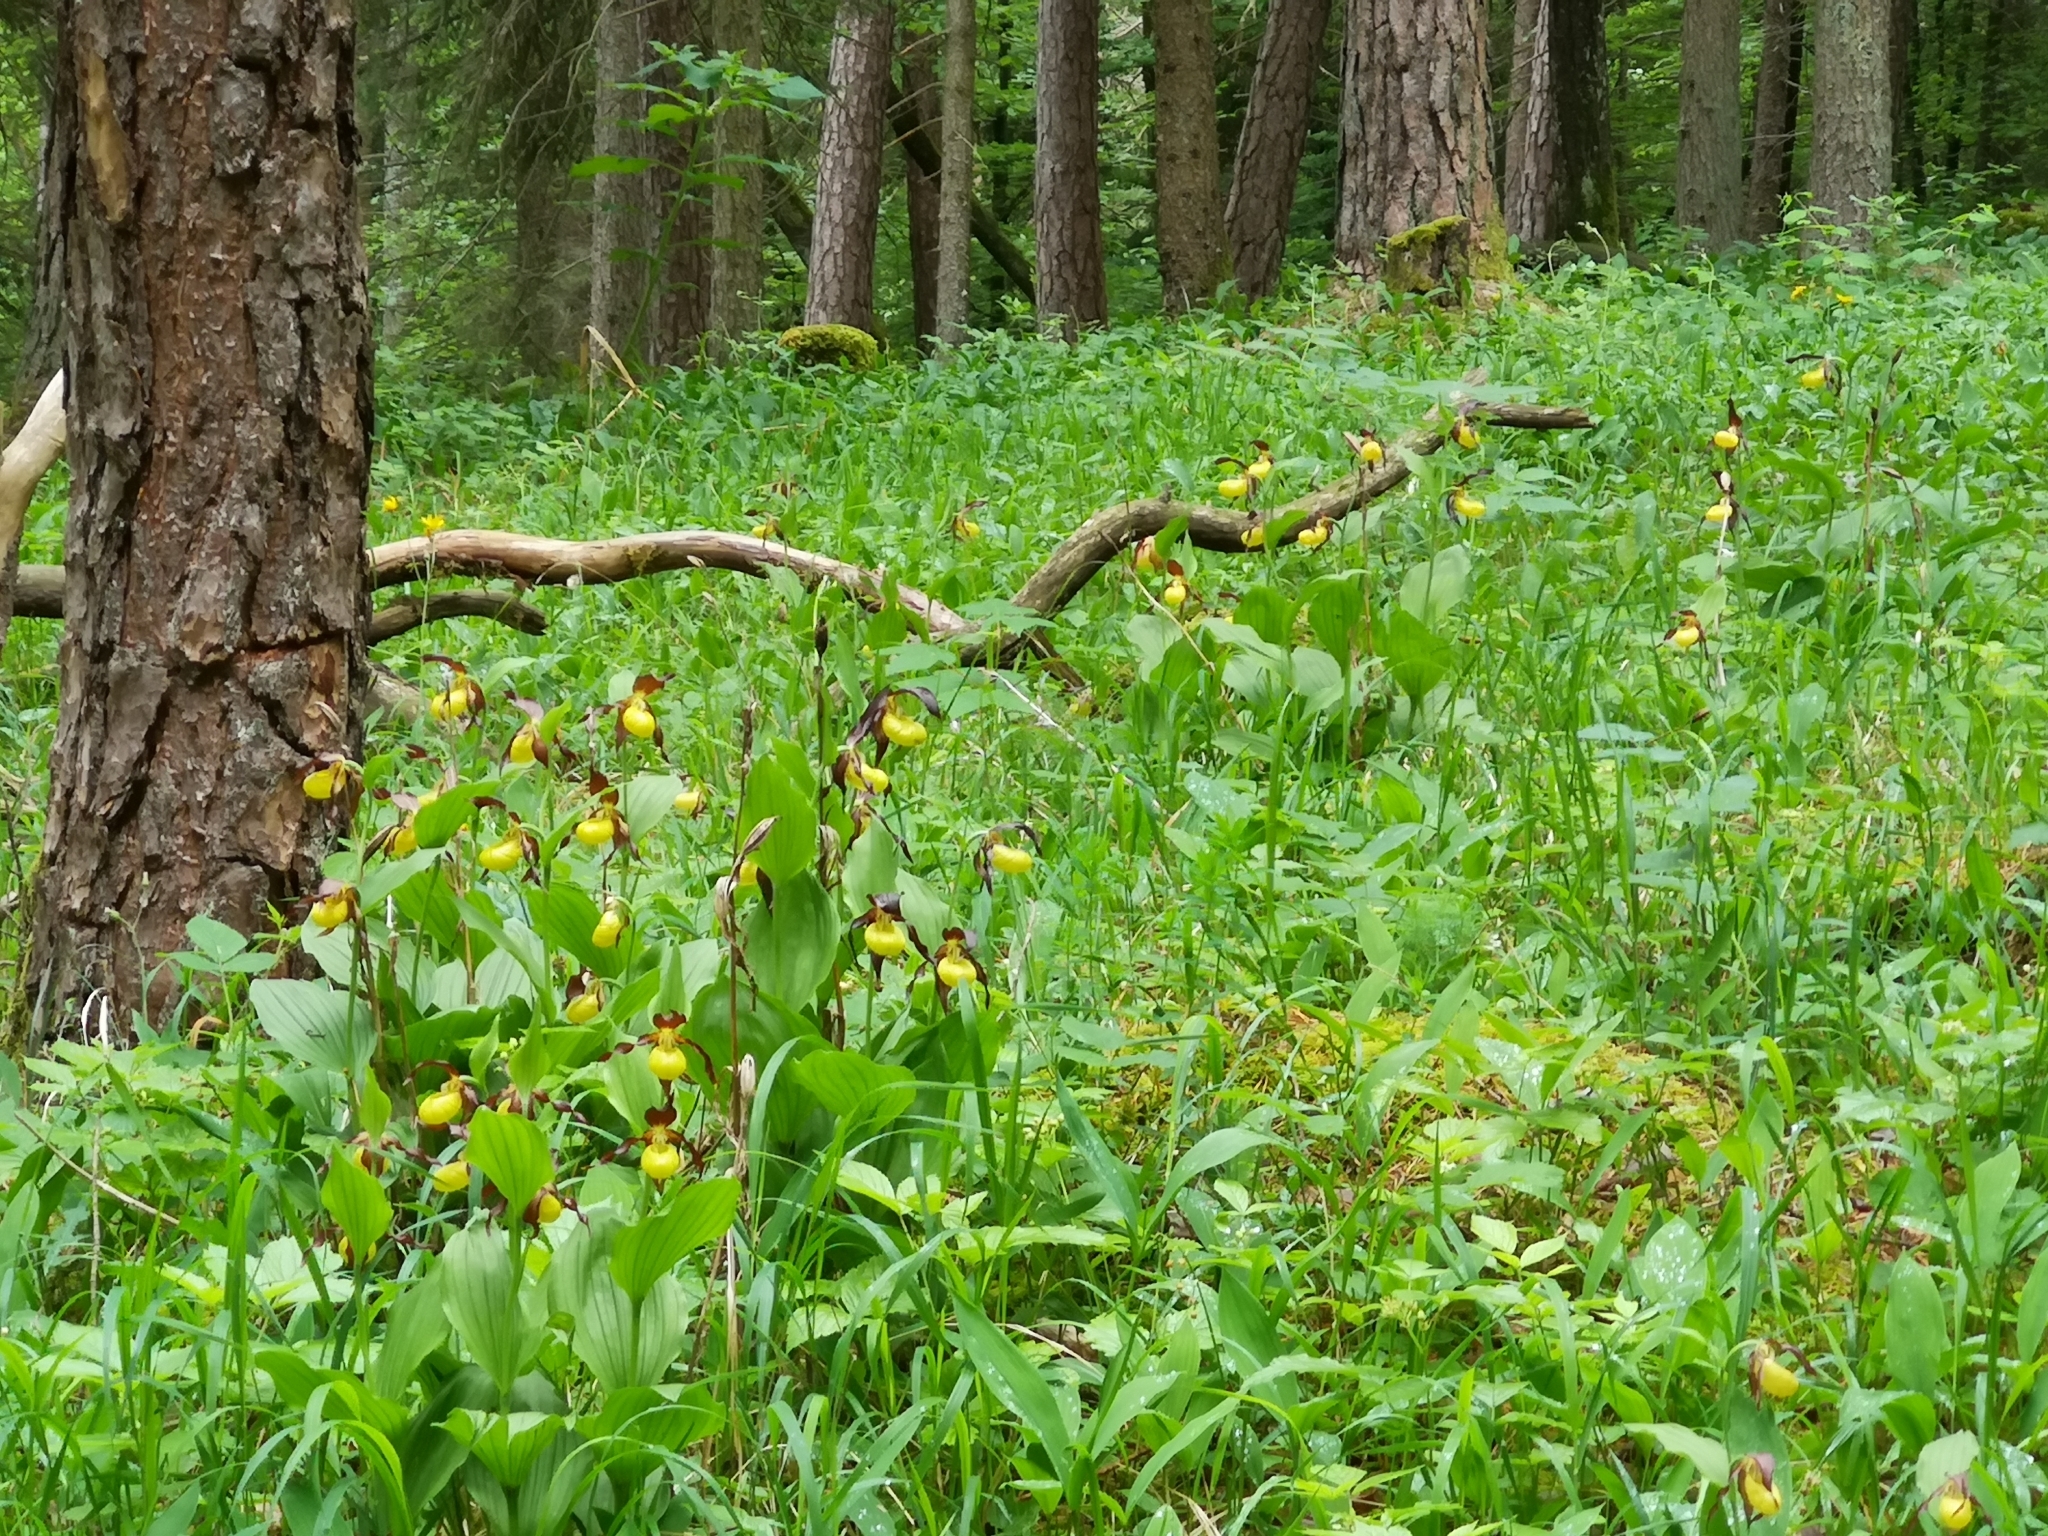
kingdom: Plantae
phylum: Tracheophyta
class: Liliopsida
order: Asparagales
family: Orchidaceae
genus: Cypripedium
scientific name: Cypripedium calceolus
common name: Lady's-slipper
